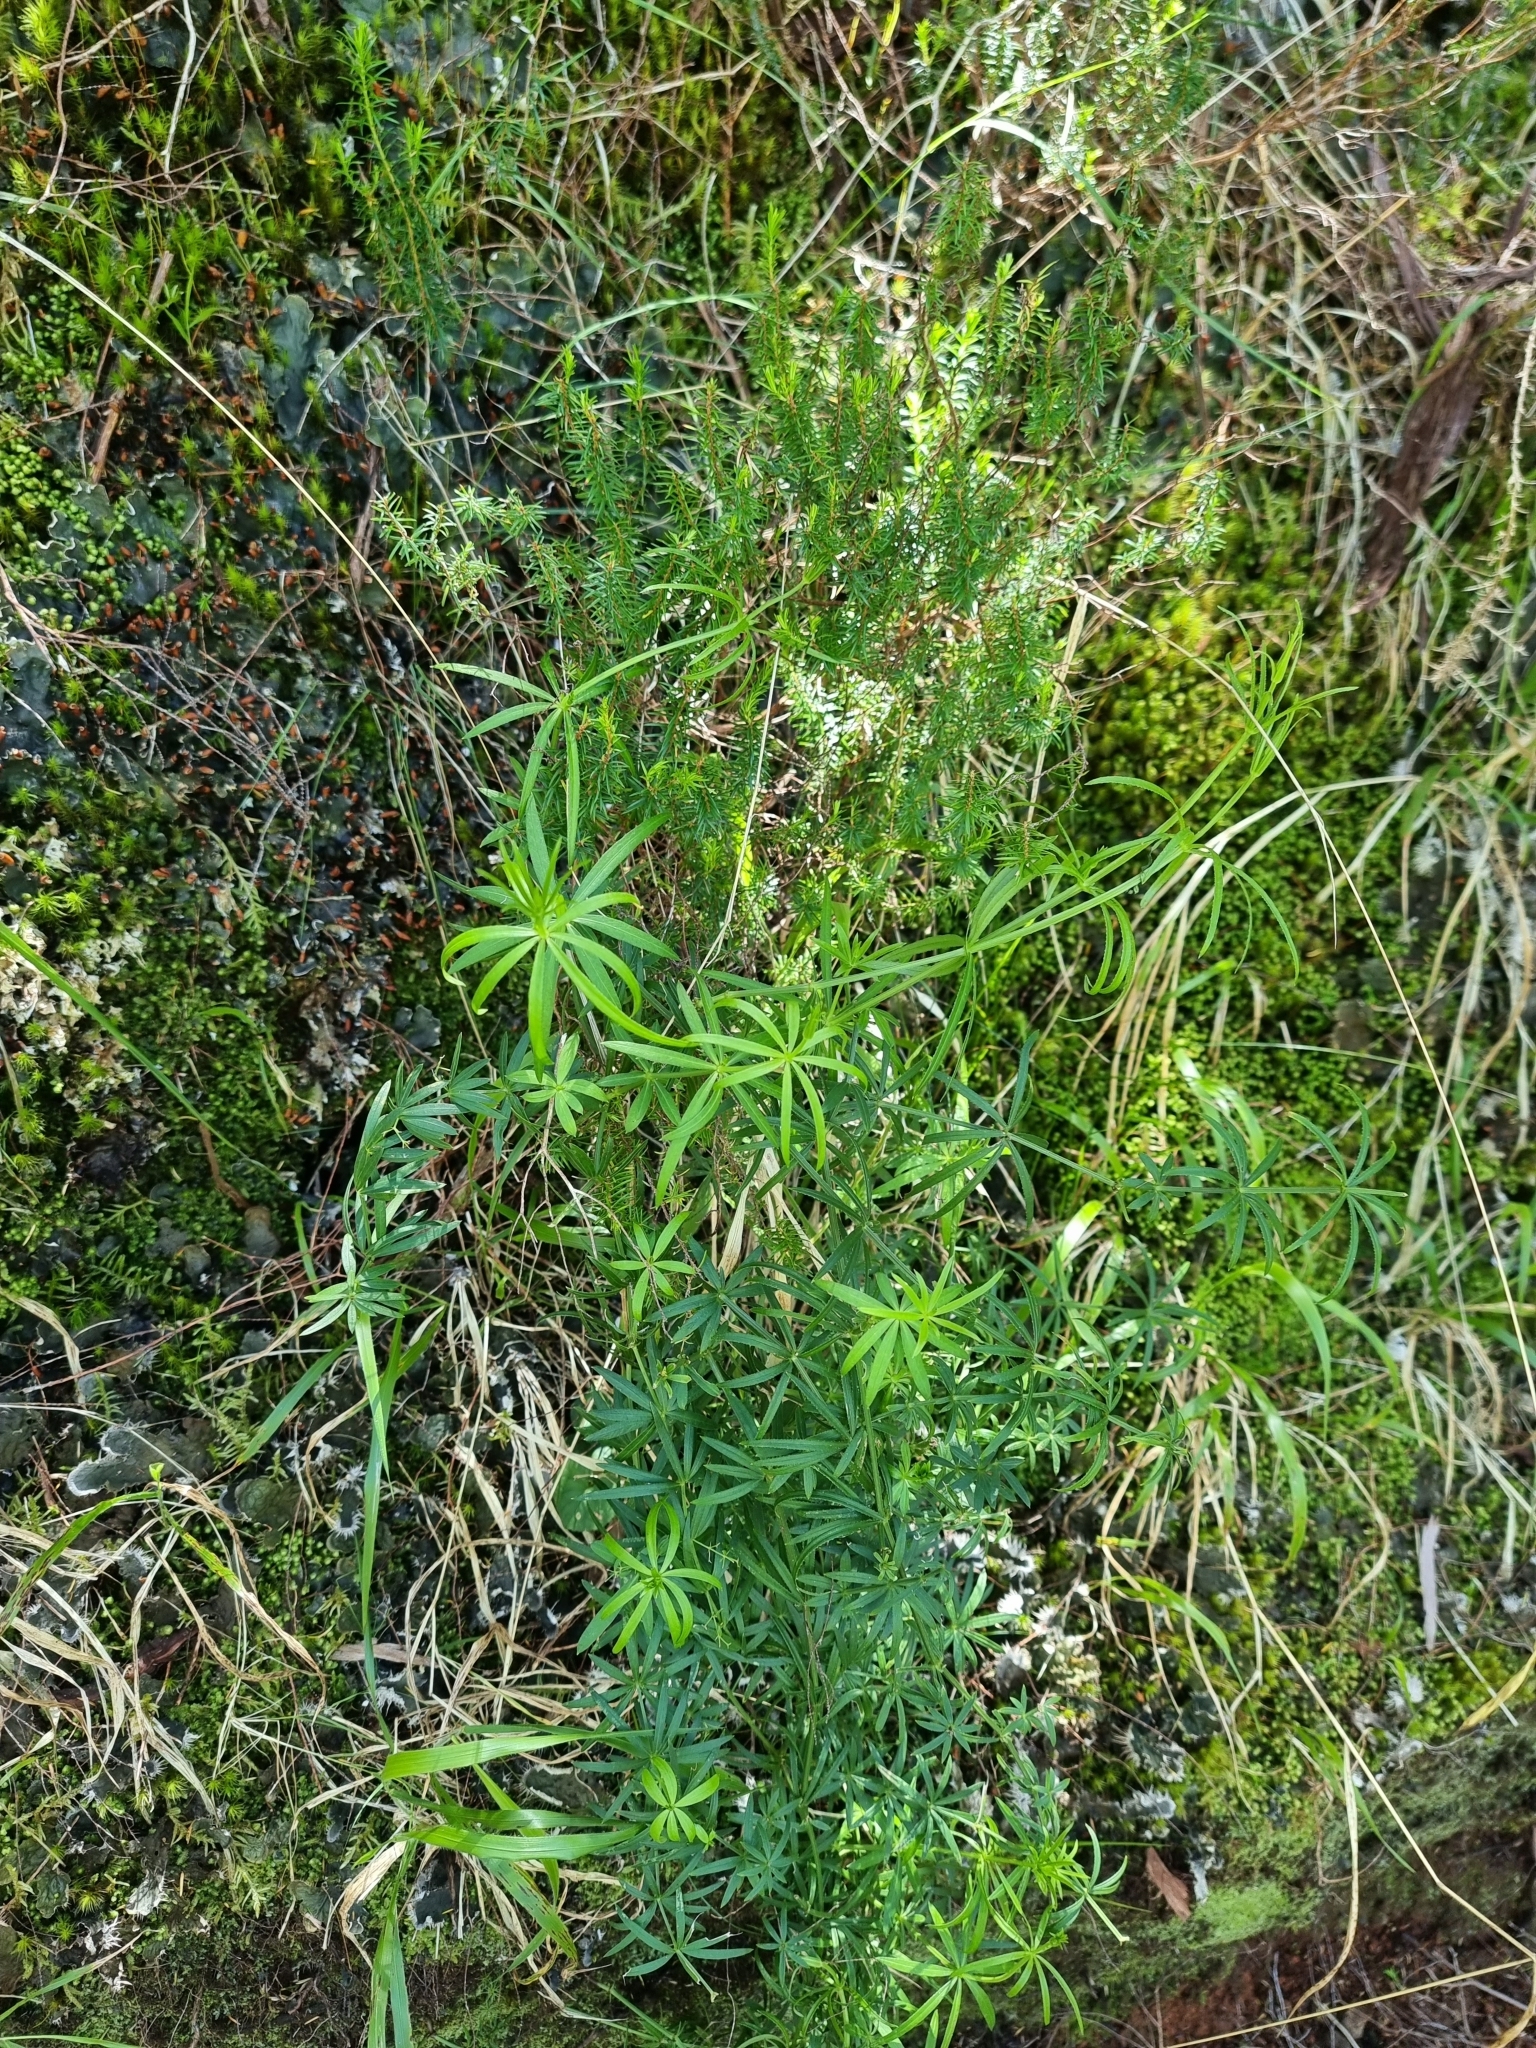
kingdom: Plantae
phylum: Tracheophyta
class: Magnoliopsida
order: Gentianales
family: Rubiaceae
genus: Rubia
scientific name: Rubia occidens
